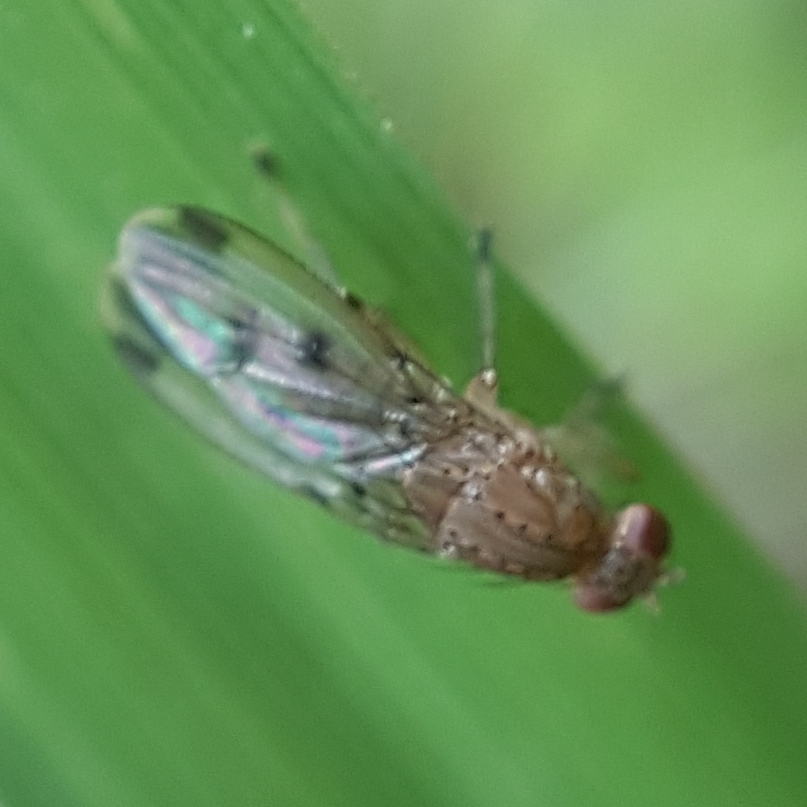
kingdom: Animalia
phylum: Arthropoda
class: Insecta
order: Diptera
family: Heleomyzidae
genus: Suillia
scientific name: Suillia variegata
